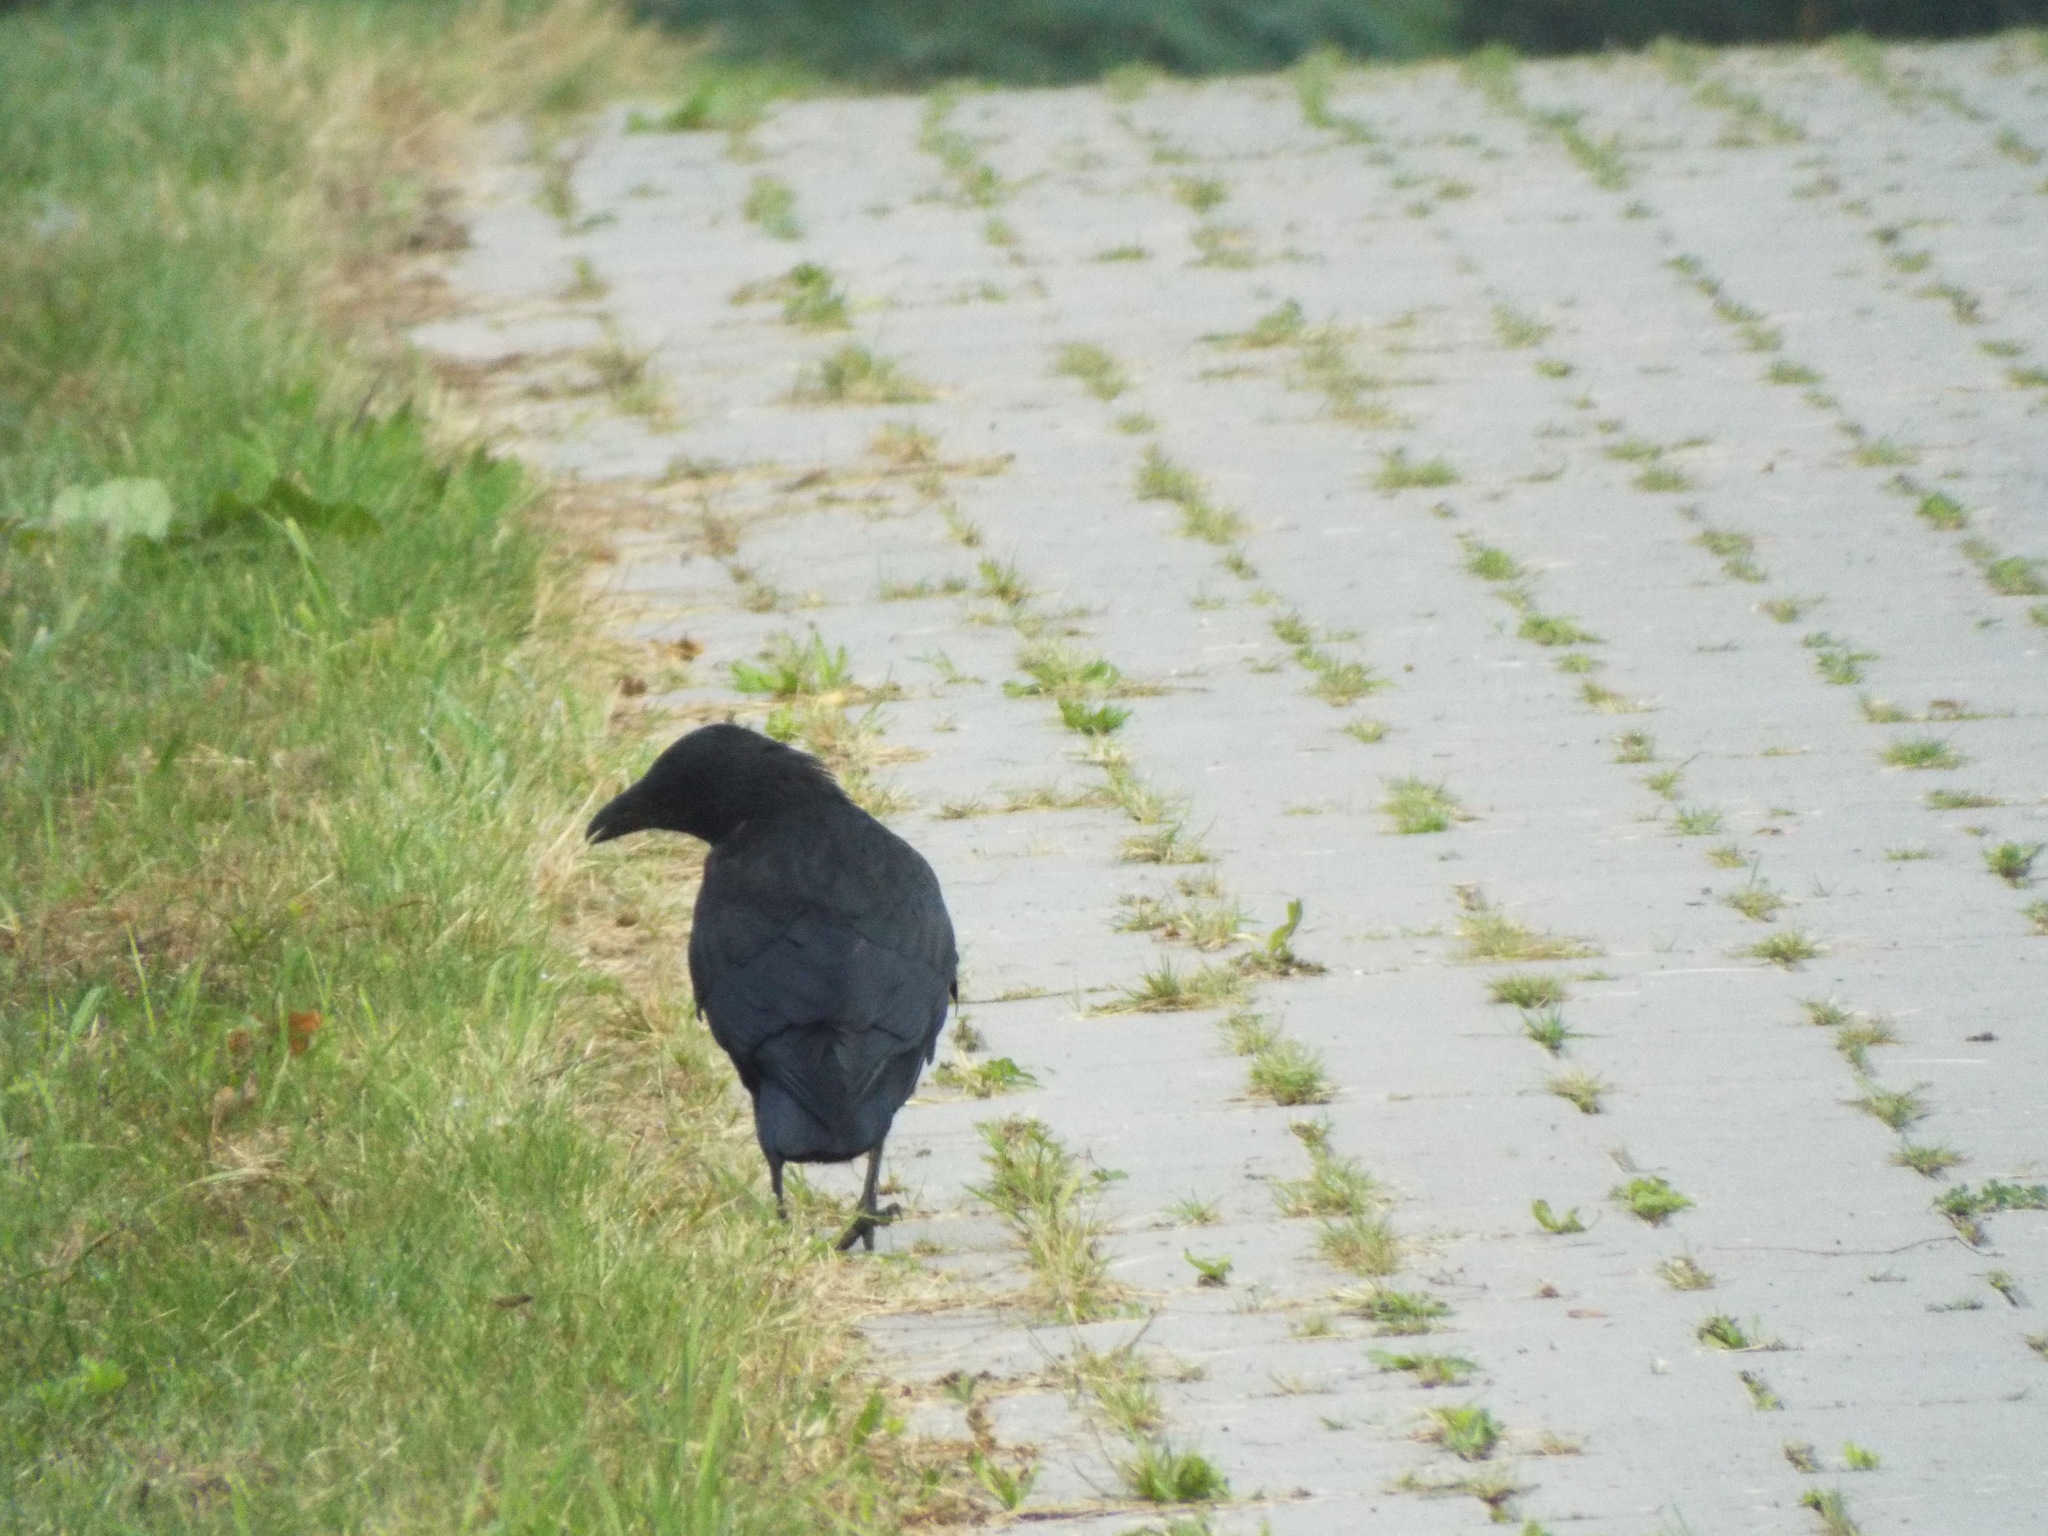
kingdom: Animalia
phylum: Chordata
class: Aves
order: Passeriformes
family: Corvidae
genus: Corvus
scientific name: Corvus corone
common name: Carrion crow
